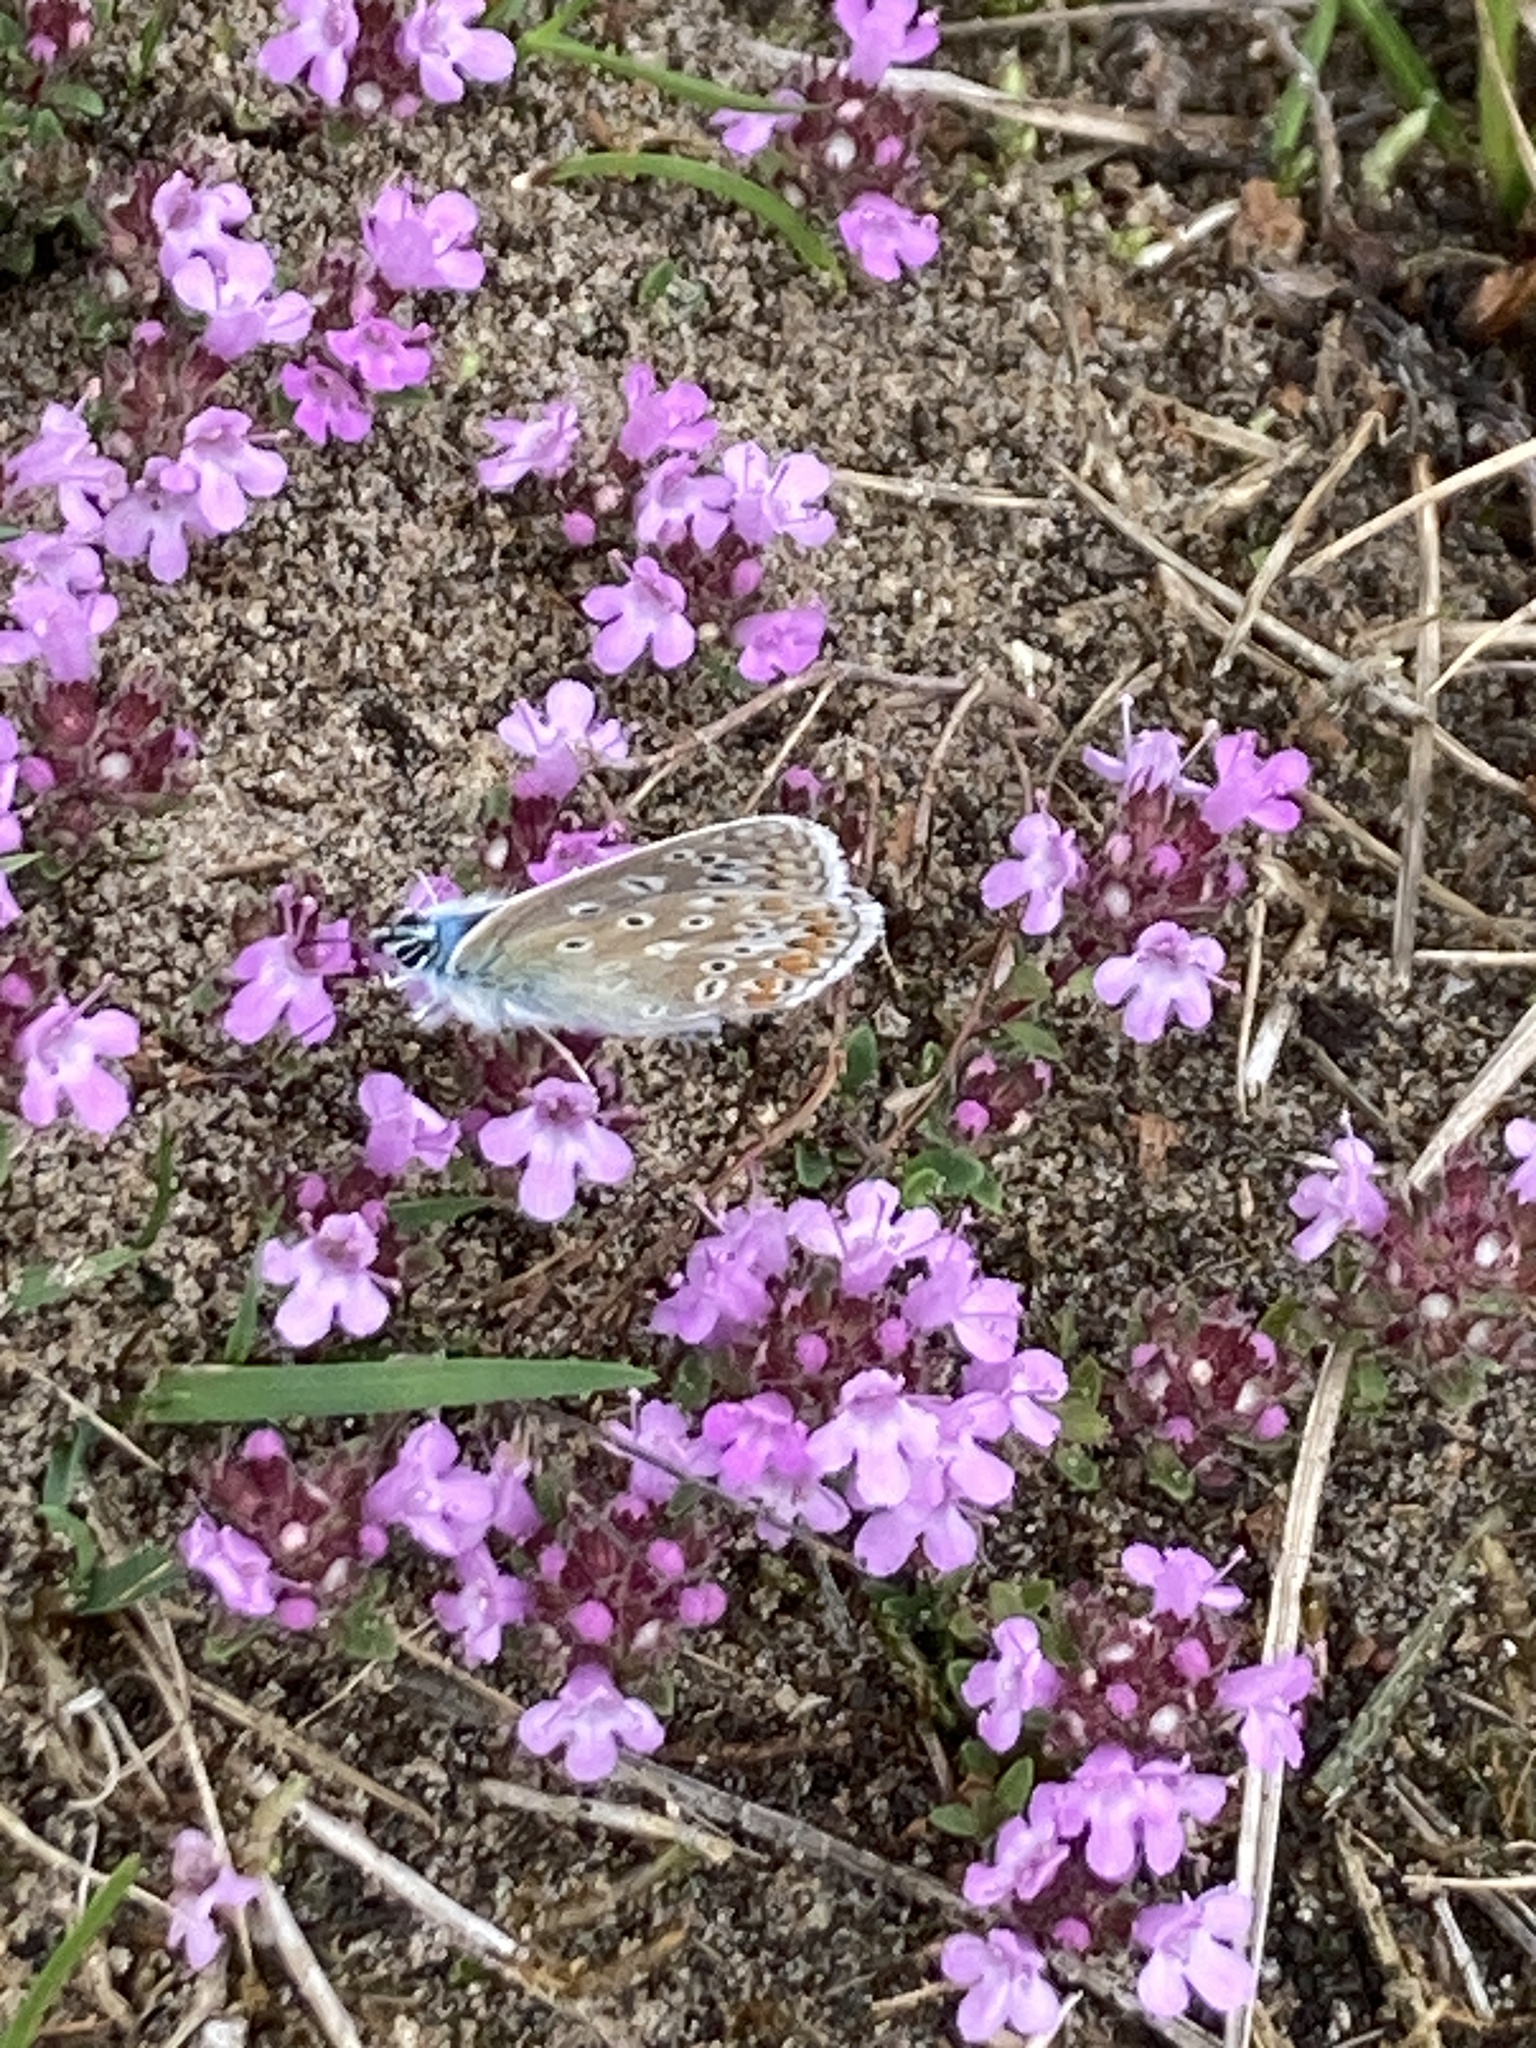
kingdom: Animalia
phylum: Arthropoda
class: Insecta
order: Lepidoptera
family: Lycaenidae
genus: Polyommatus
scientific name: Polyommatus icarus
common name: Common blue
